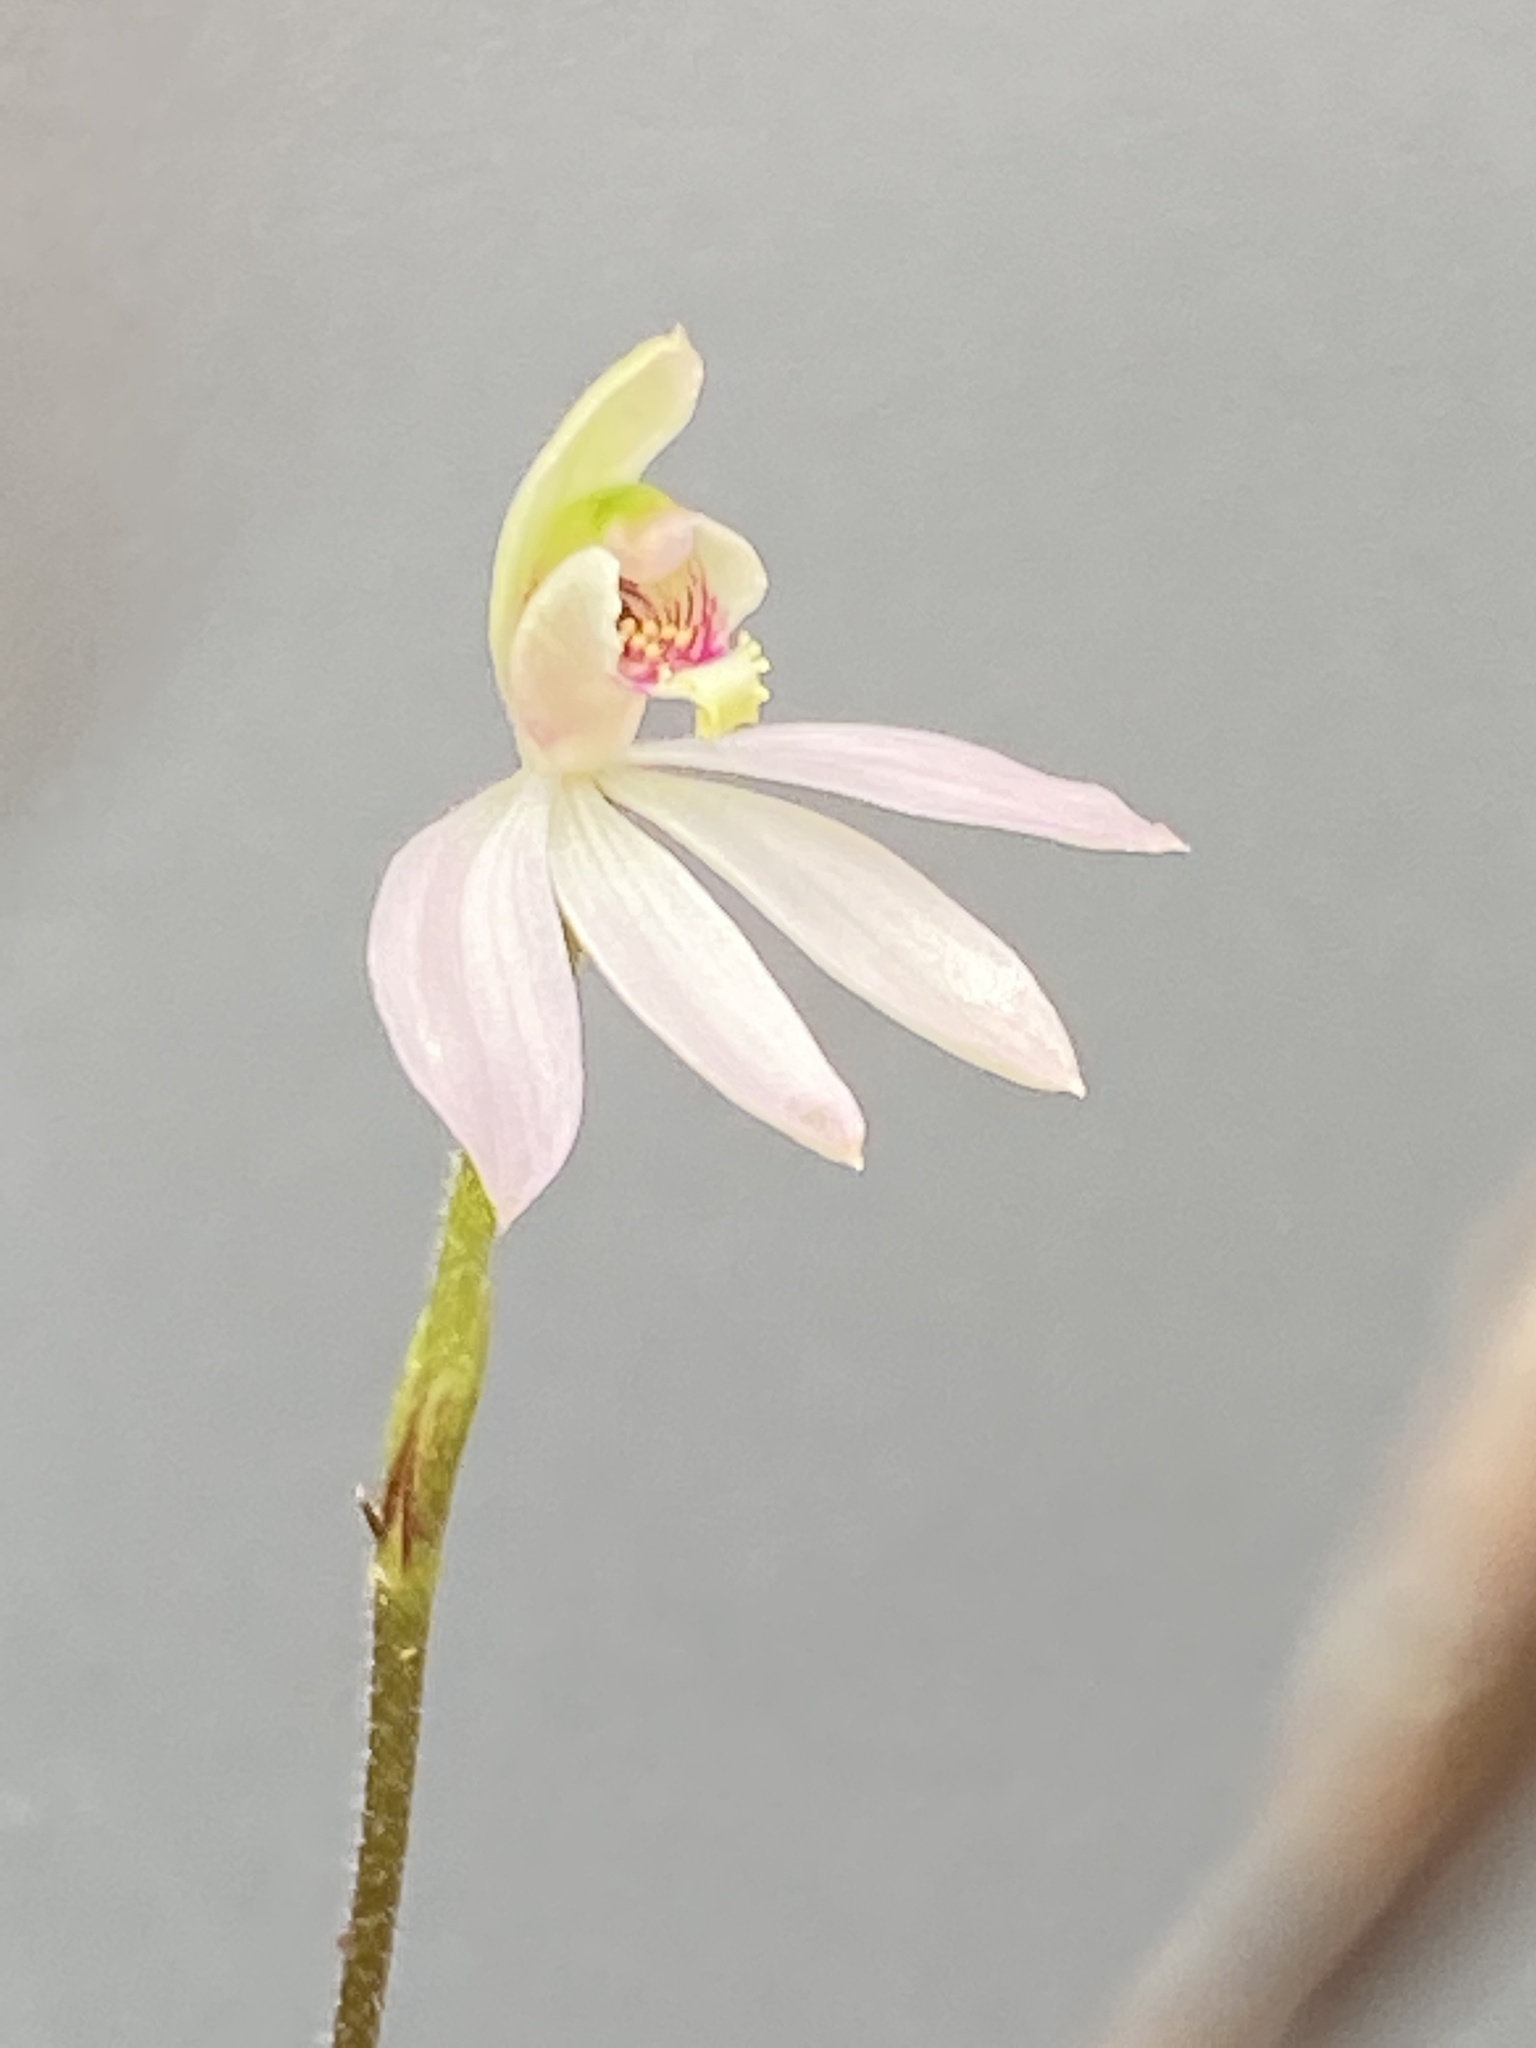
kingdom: Plantae
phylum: Tracheophyta
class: Liliopsida
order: Asparagales
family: Orchidaceae
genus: Caladenia
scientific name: Caladenia carnea
